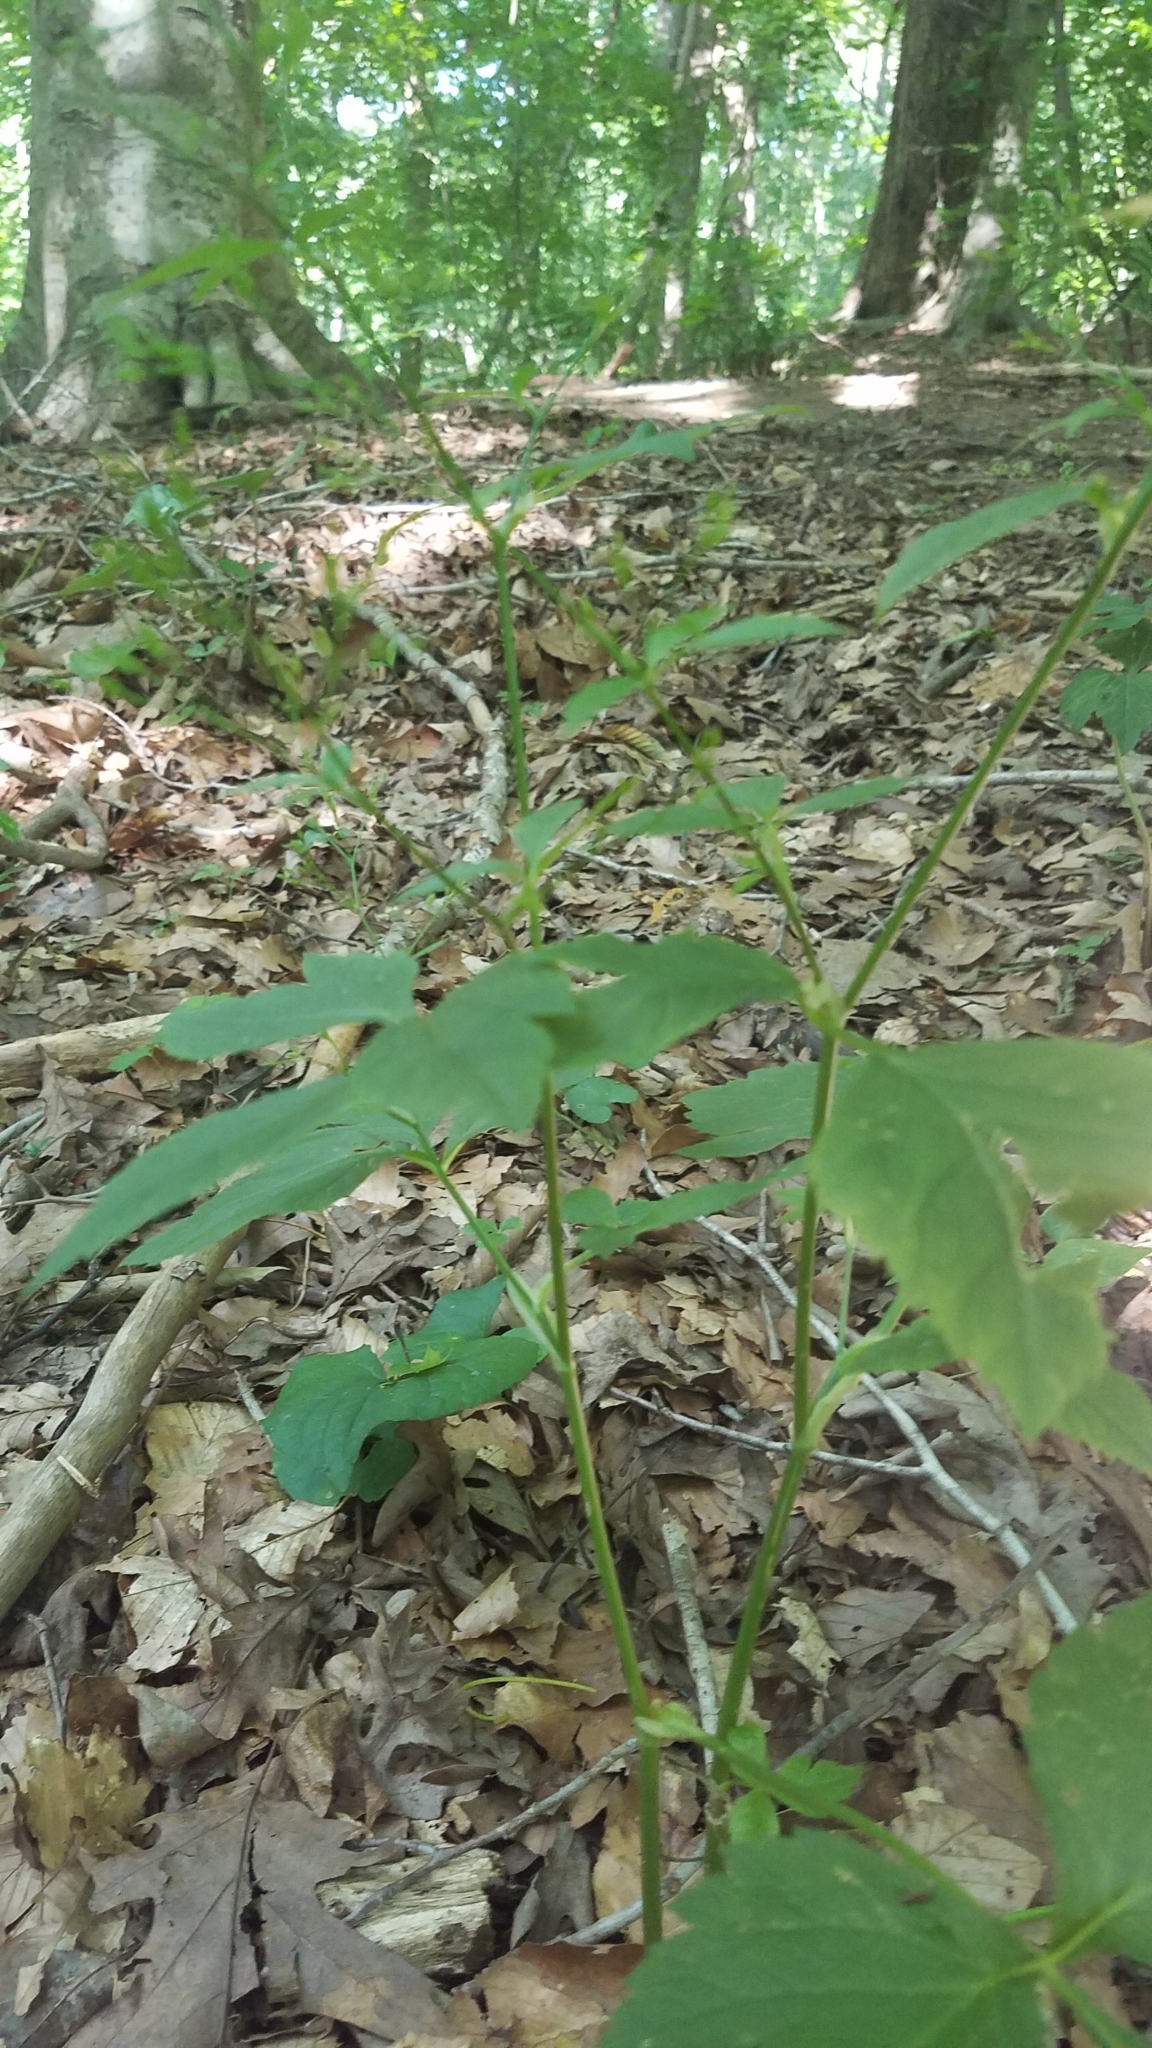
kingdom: Plantae
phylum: Tracheophyta
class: Magnoliopsida
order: Apiales
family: Apiaceae
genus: Cryptotaenia
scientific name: Cryptotaenia canadensis
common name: Honewort
